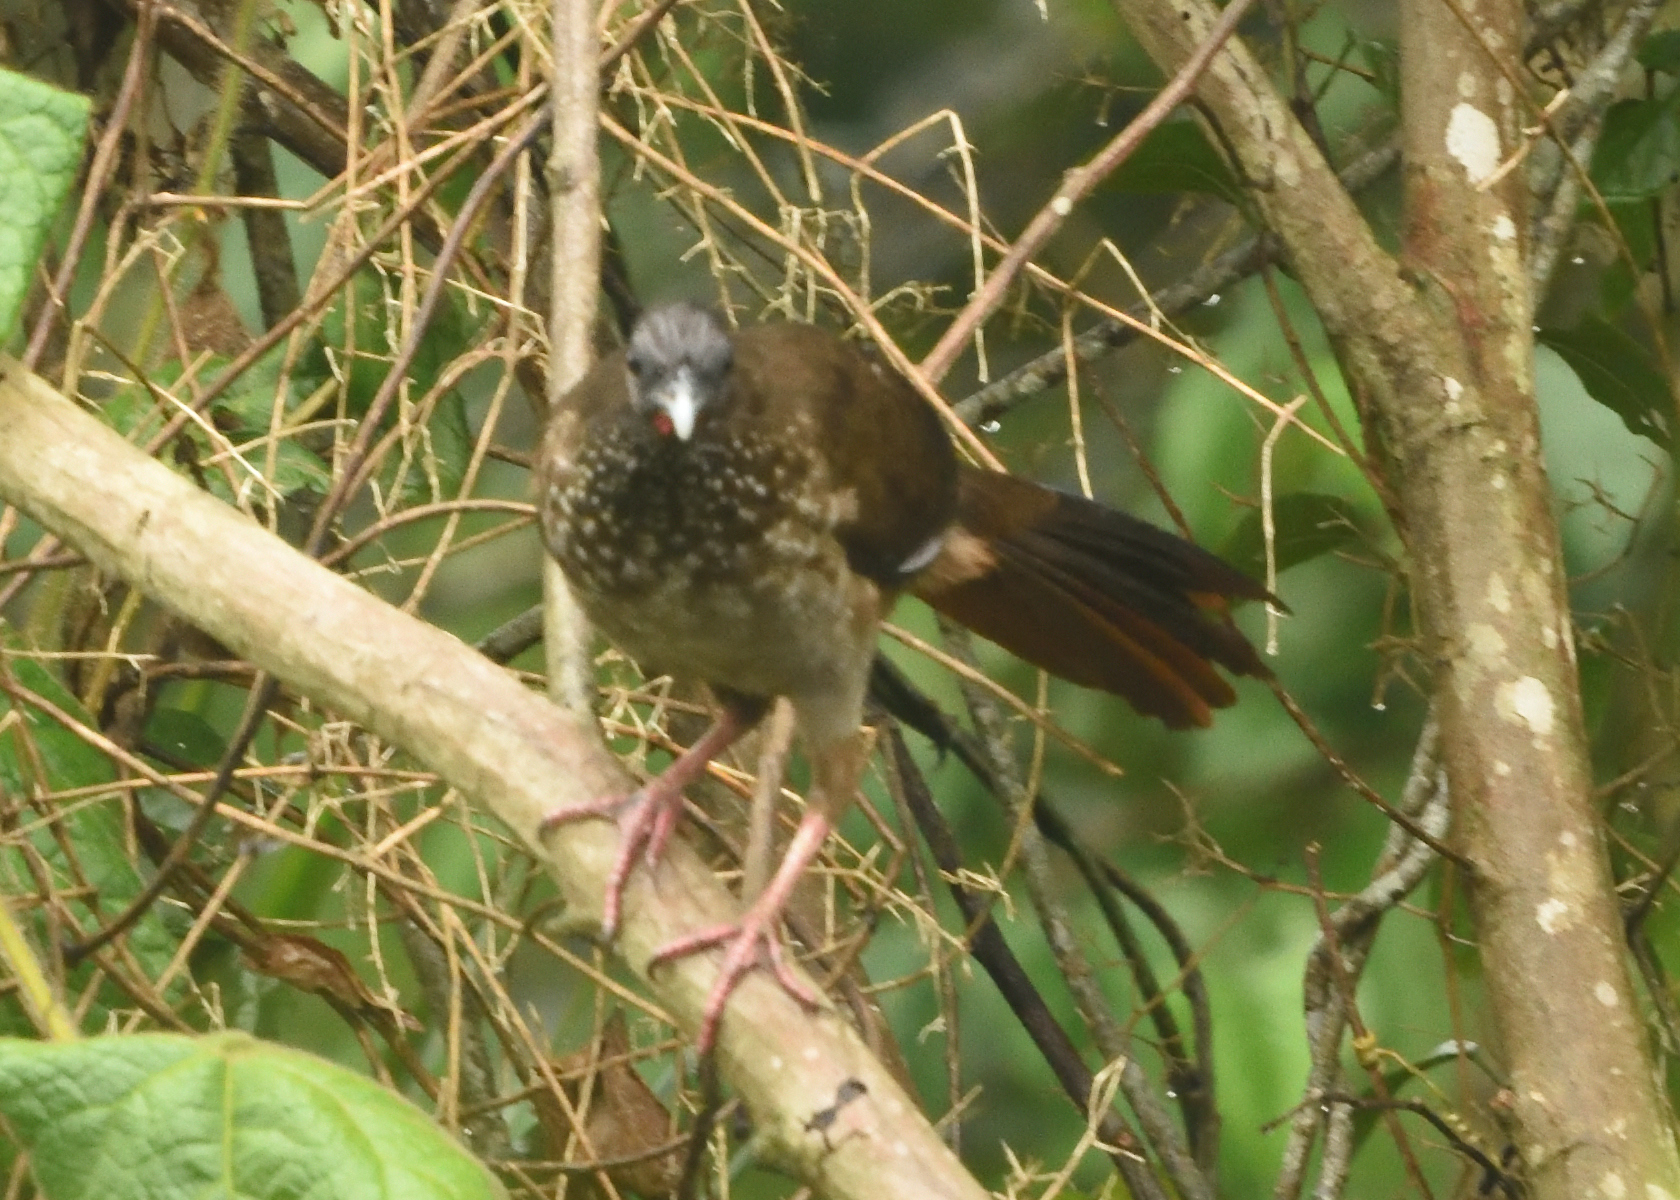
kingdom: Animalia
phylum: Chordata
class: Aves
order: Galliformes
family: Cracidae
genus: Ortalis
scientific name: Ortalis guttata
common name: Speckled chachalaca
